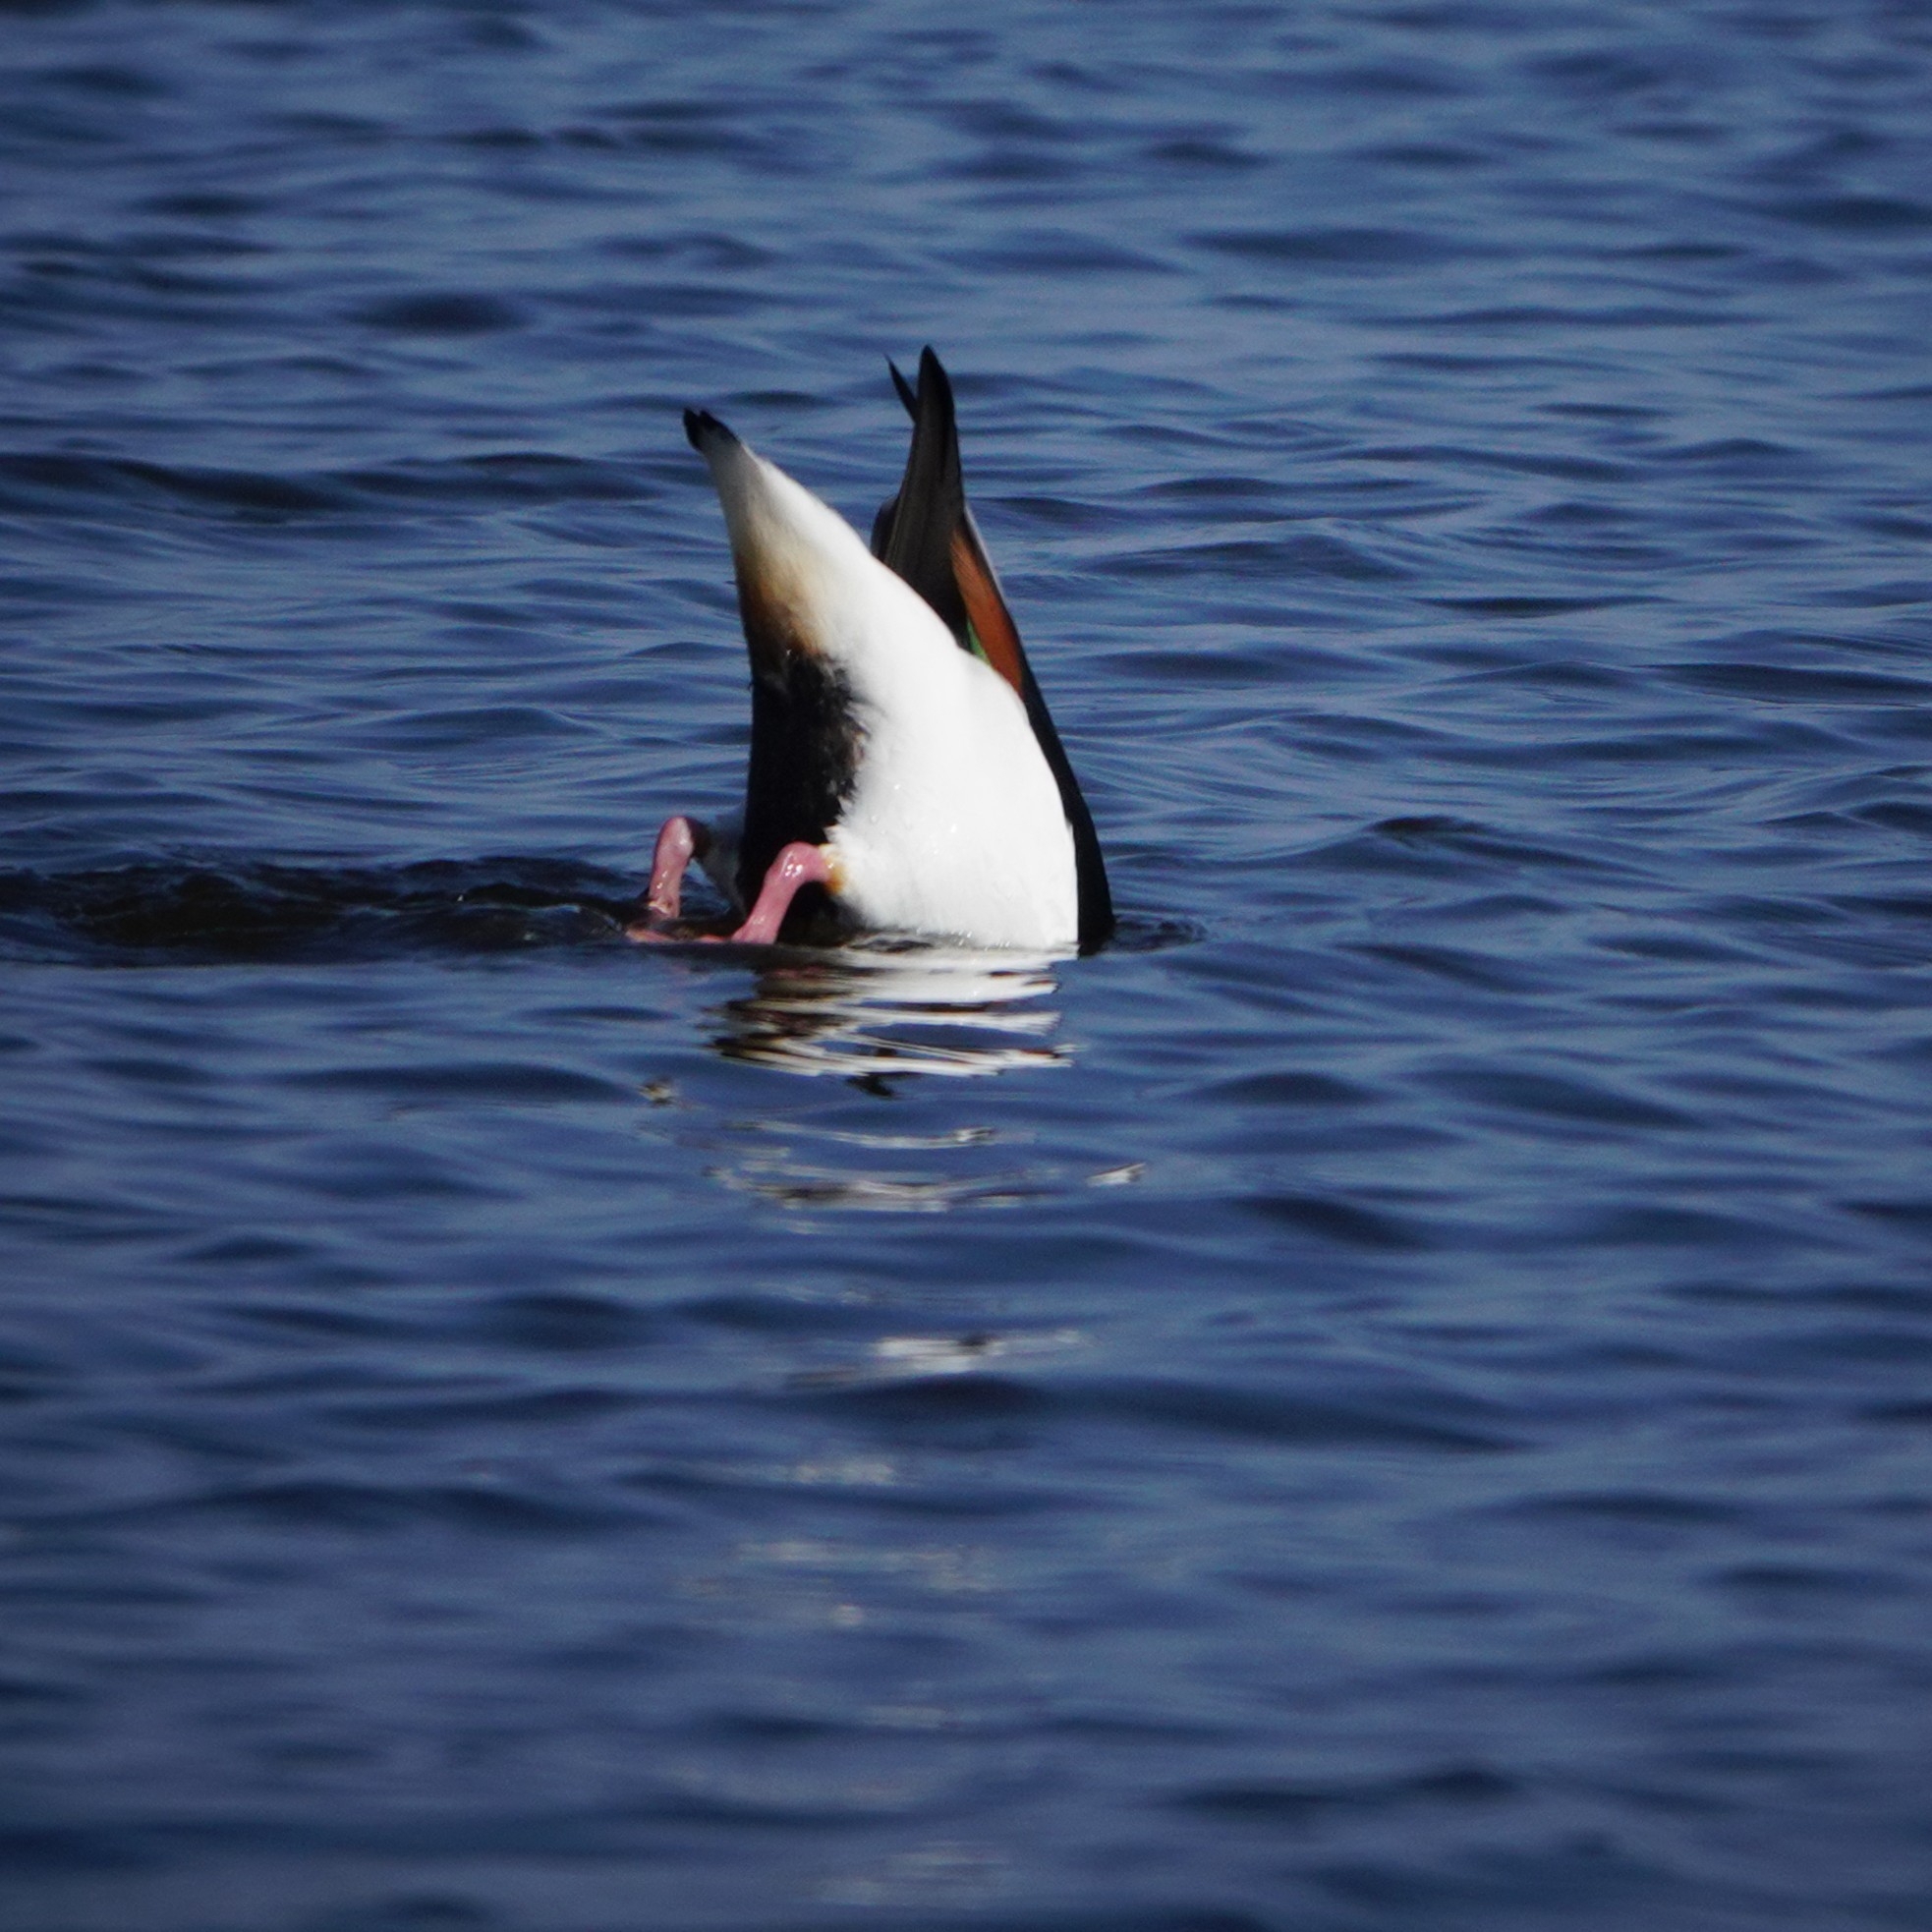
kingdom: Animalia
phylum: Chordata
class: Aves
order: Anseriformes
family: Anatidae
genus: Tadorna
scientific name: Tadorna tadorna
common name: Common shelduck
